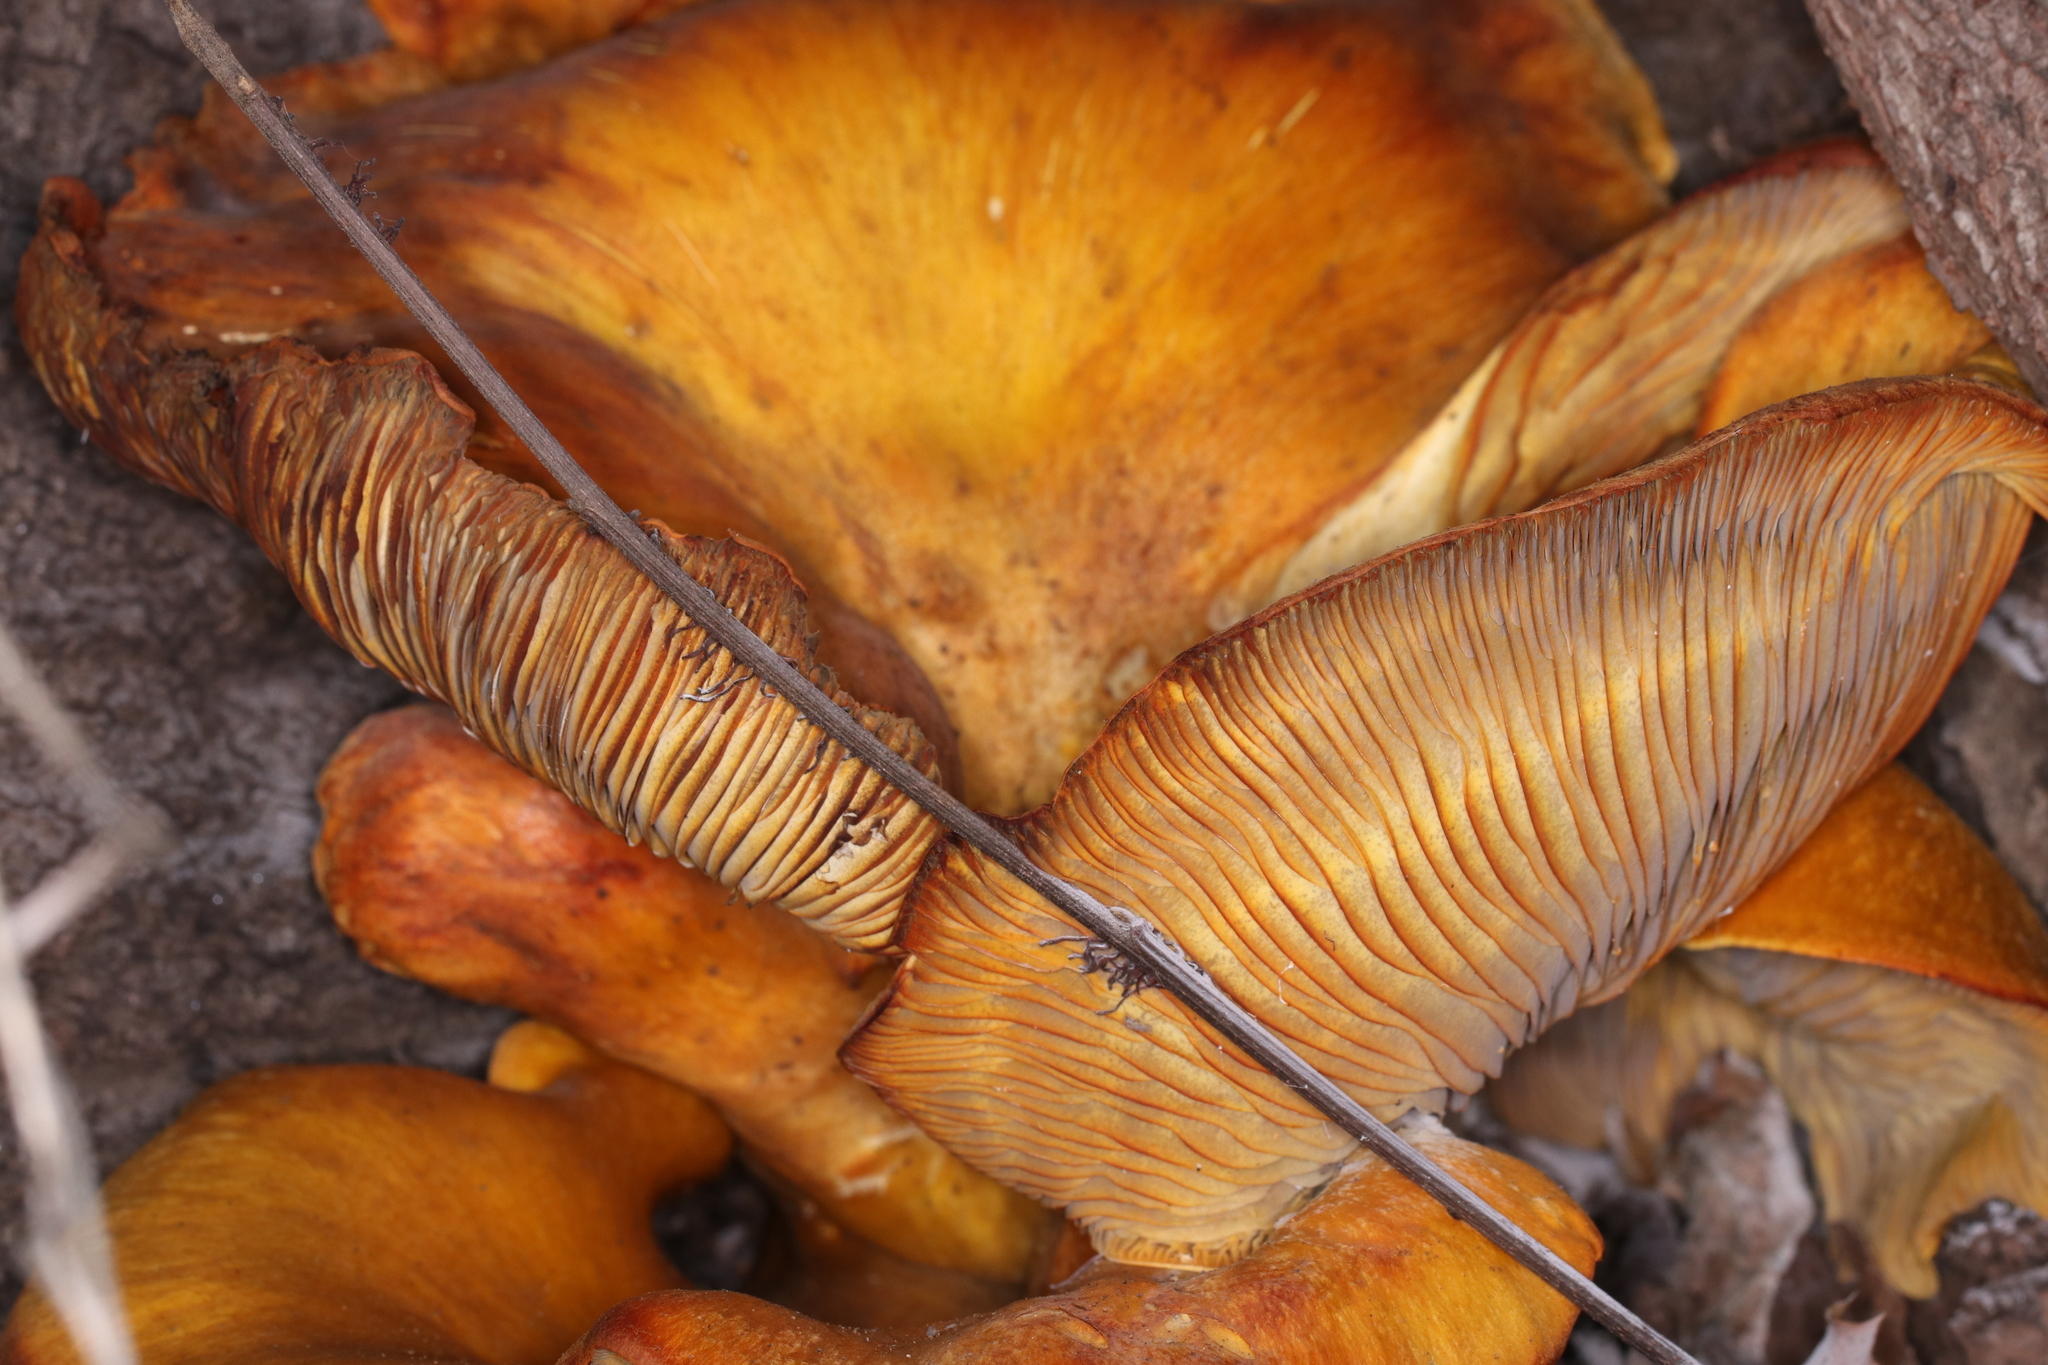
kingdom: Fungi
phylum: Basidiomycota
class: Agaricomycetes
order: Agaricales
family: Omphalotaceae
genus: Omphalotus
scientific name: Omphalotus olivascens
